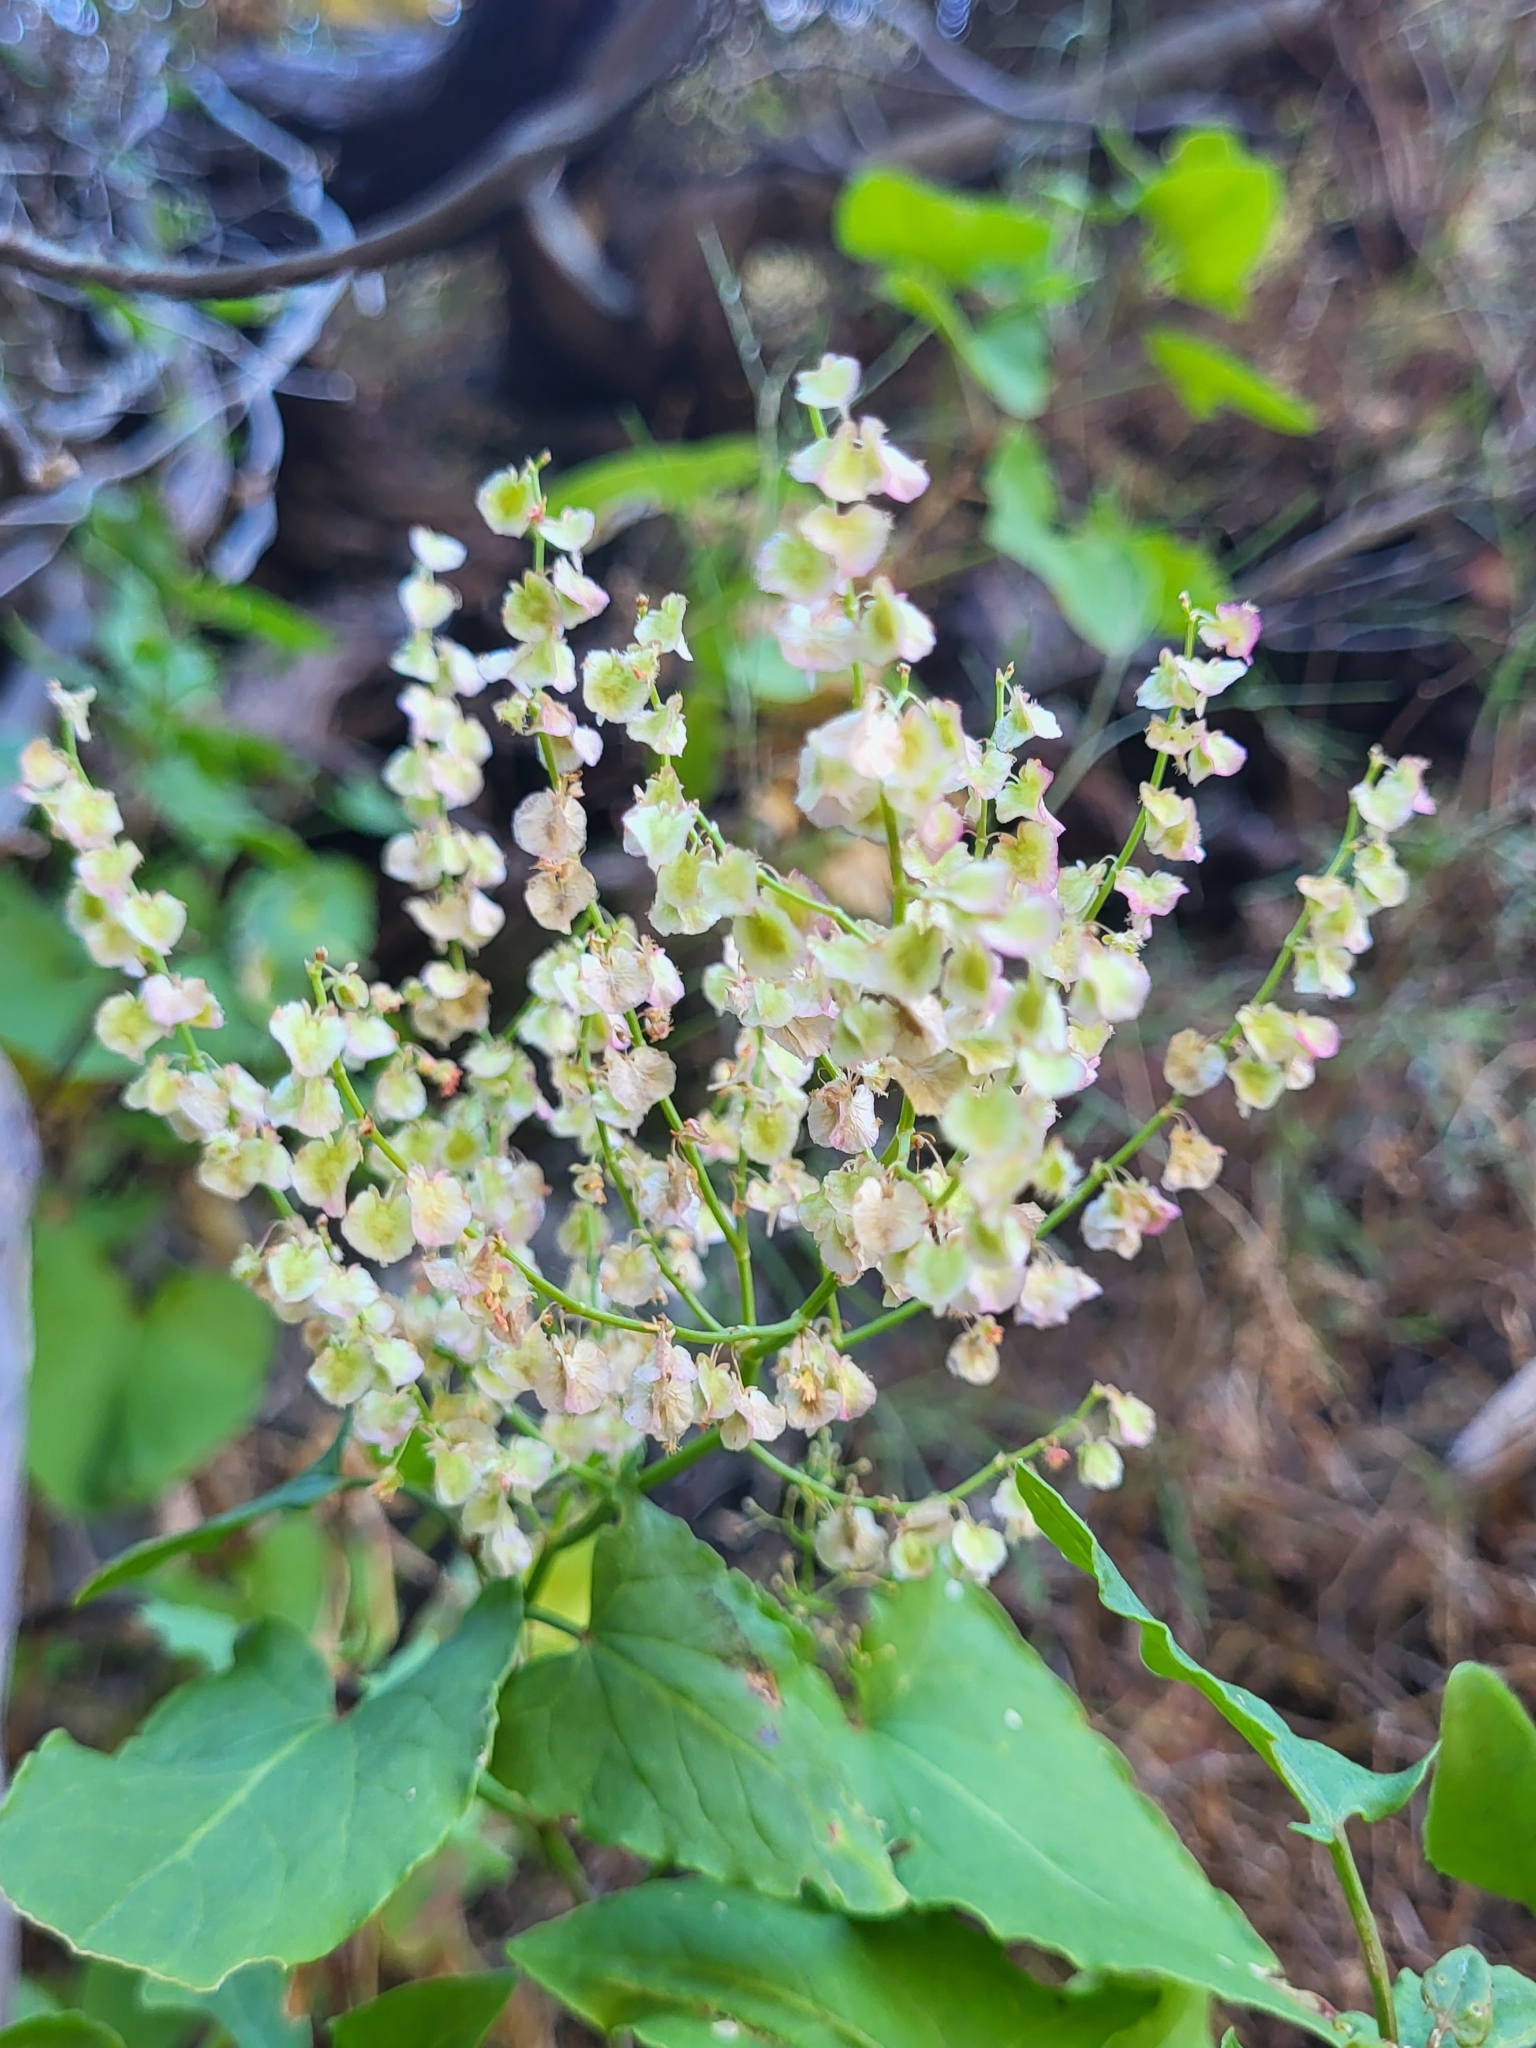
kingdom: Plantae
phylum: Tracheophyta
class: Magnoliopsida
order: Caryophyllales
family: Polygonaceae
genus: Rumex
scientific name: Rumex maderensis
